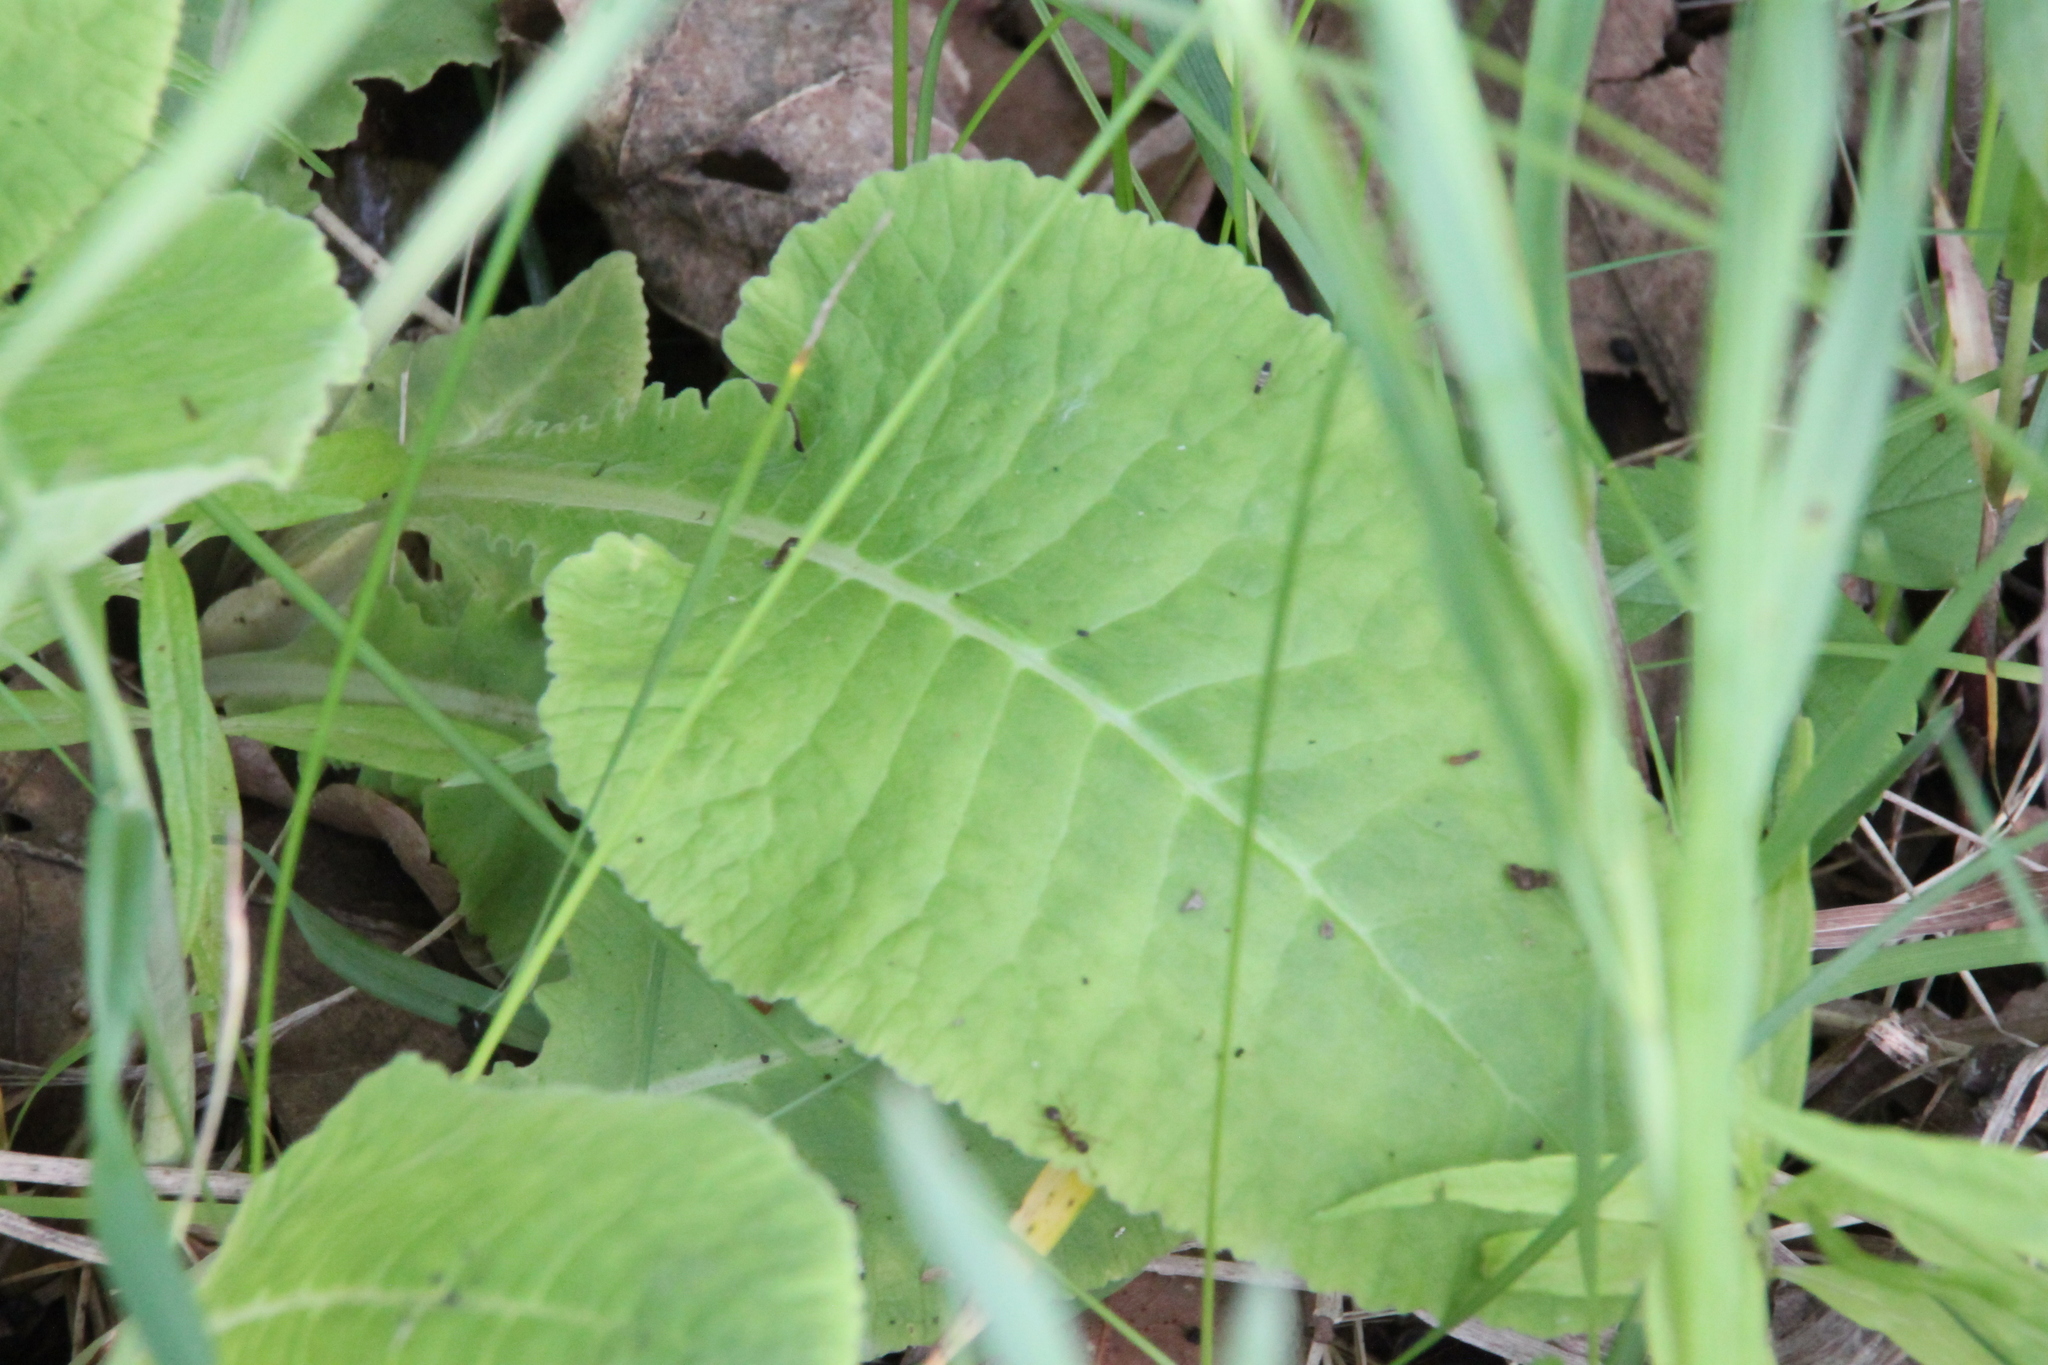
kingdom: Plantae
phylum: Tracheophyta
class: Magnoliopsida
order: Ericales
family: Primulaceae
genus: Primula
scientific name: Primula veris
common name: Cowslip
